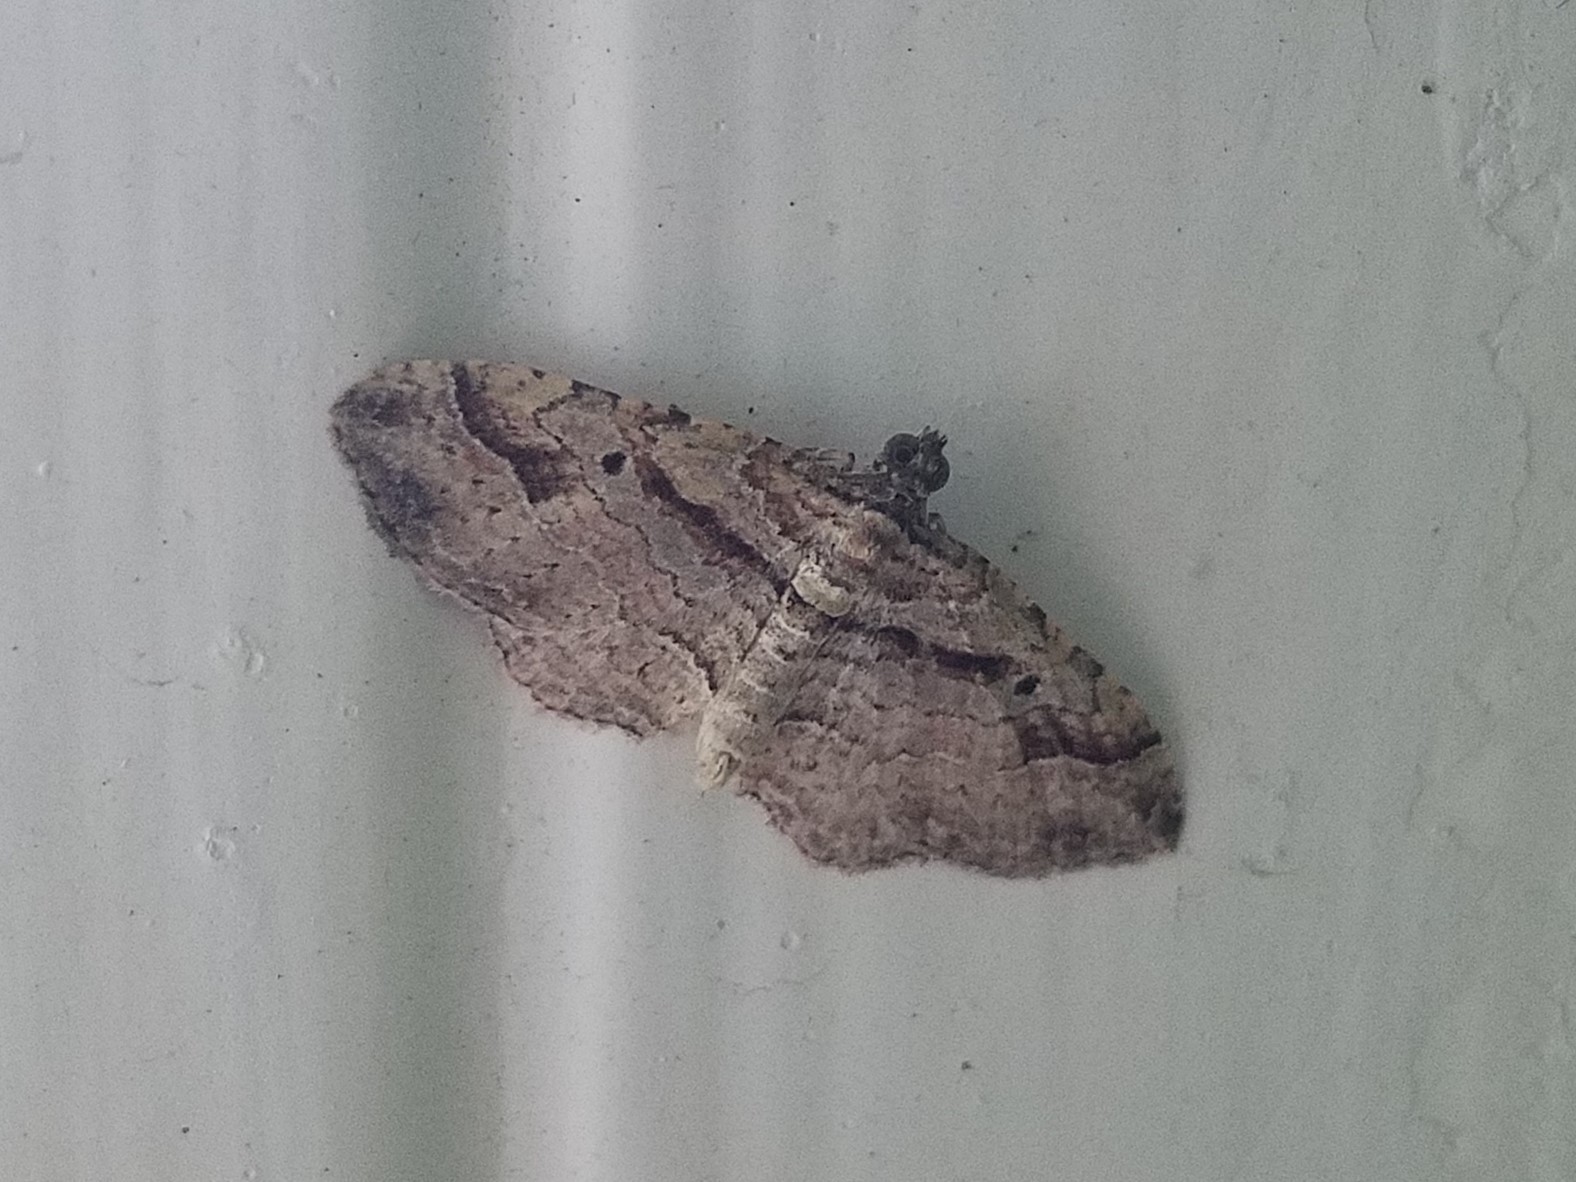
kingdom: Animalia
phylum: Arthropoda
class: Insecta
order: Lepidoptera
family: Geometridae
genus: Costaconvexa
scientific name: Costaconvexa centrostrigaria
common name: Bent-line carpet
